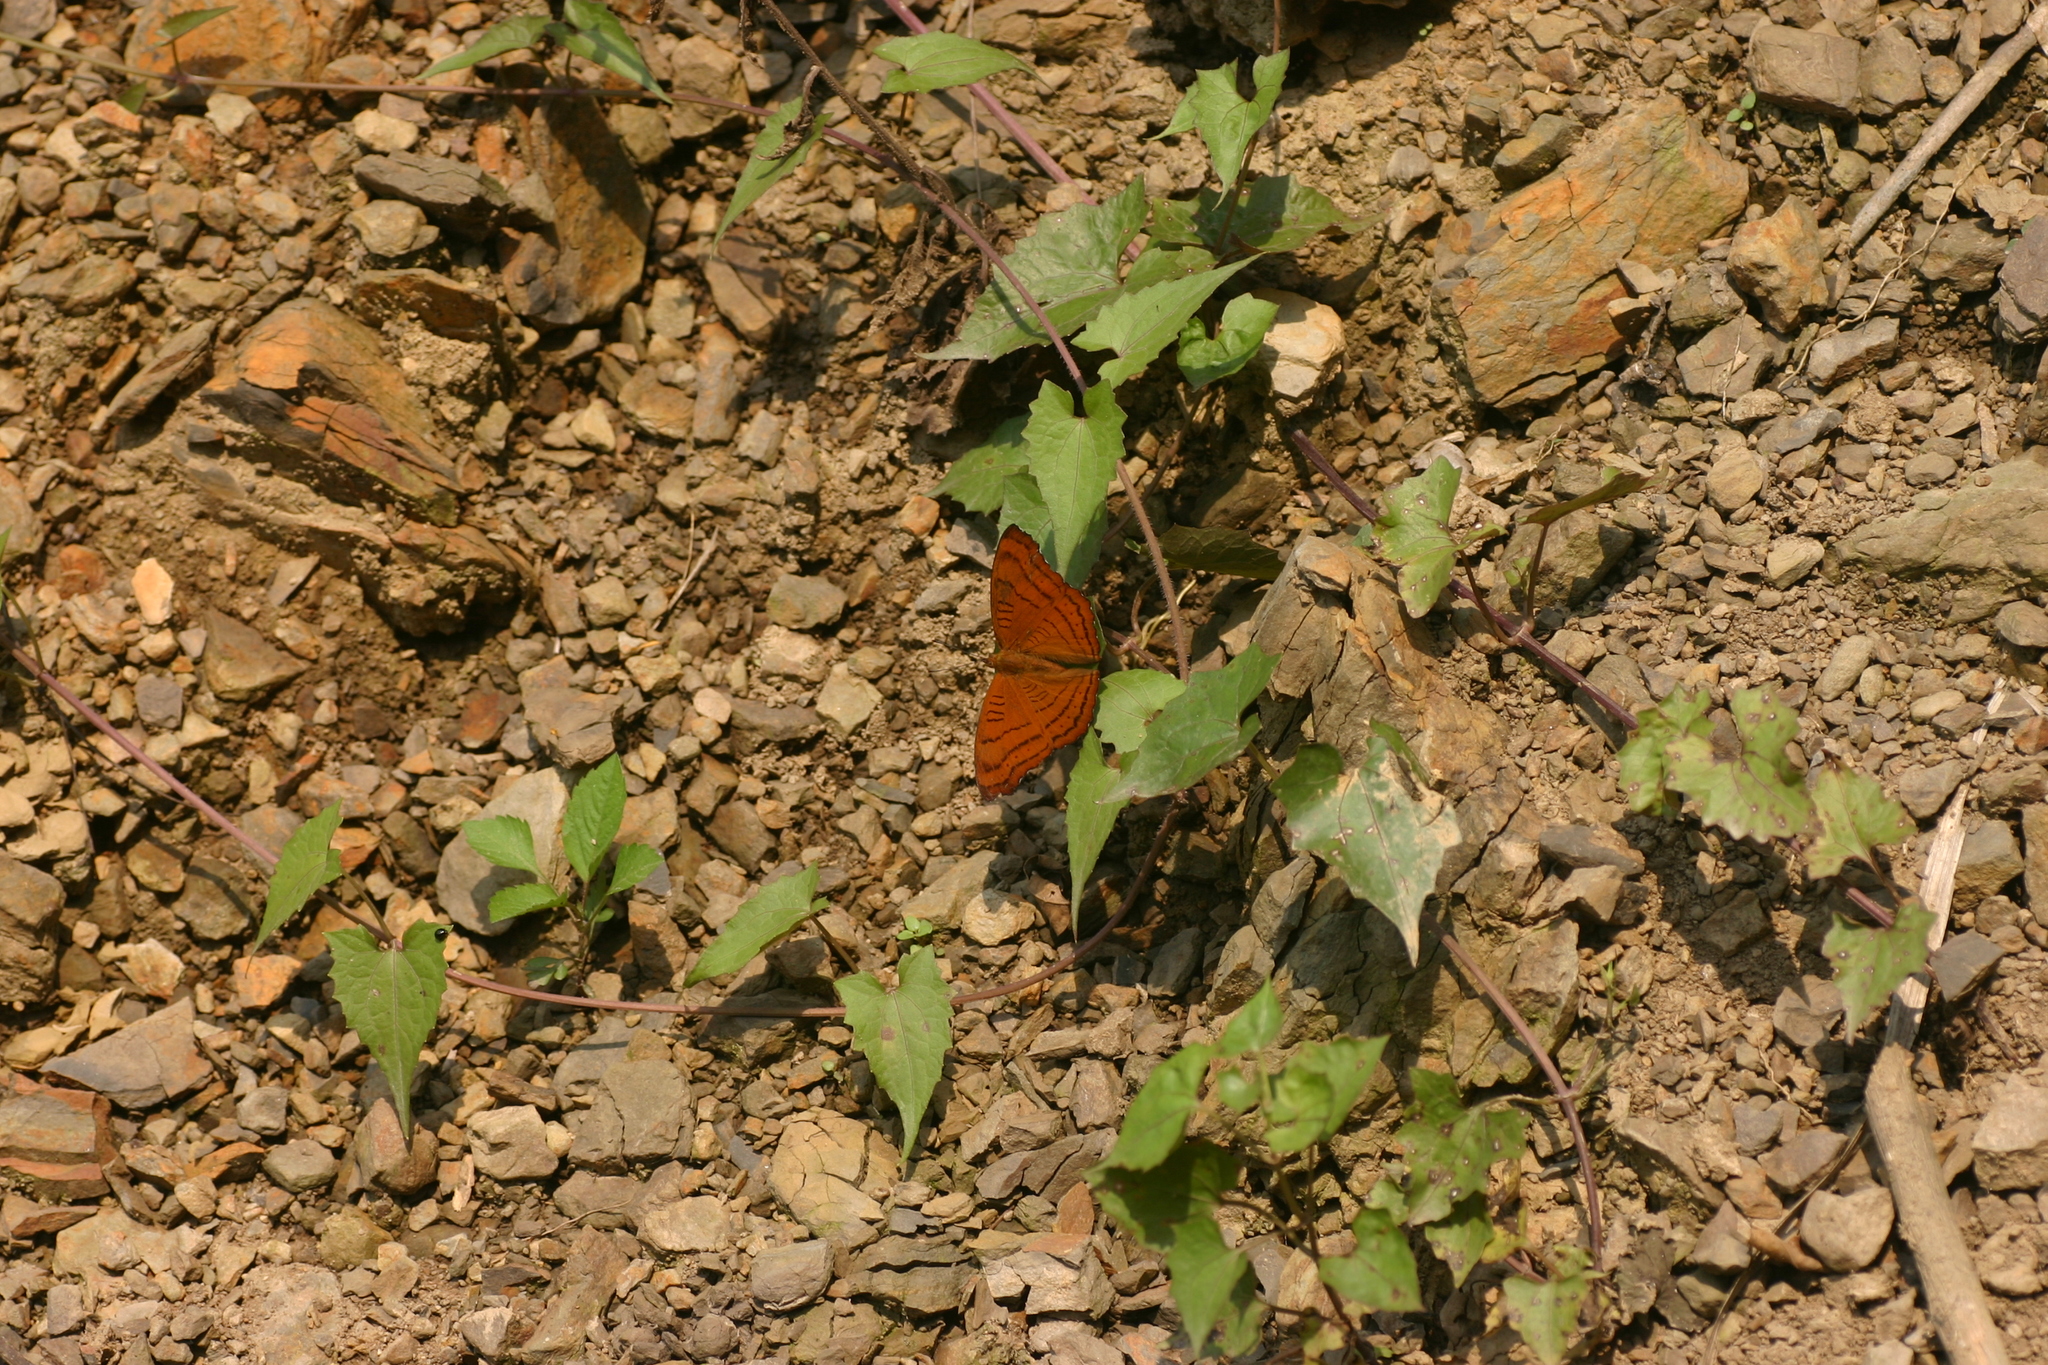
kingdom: Animalia
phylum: Arthropoda
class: Insecta
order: Lepidoptera
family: Nymphalidae
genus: Pseudergolis
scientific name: Pseudergolis wedah
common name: Tabby
